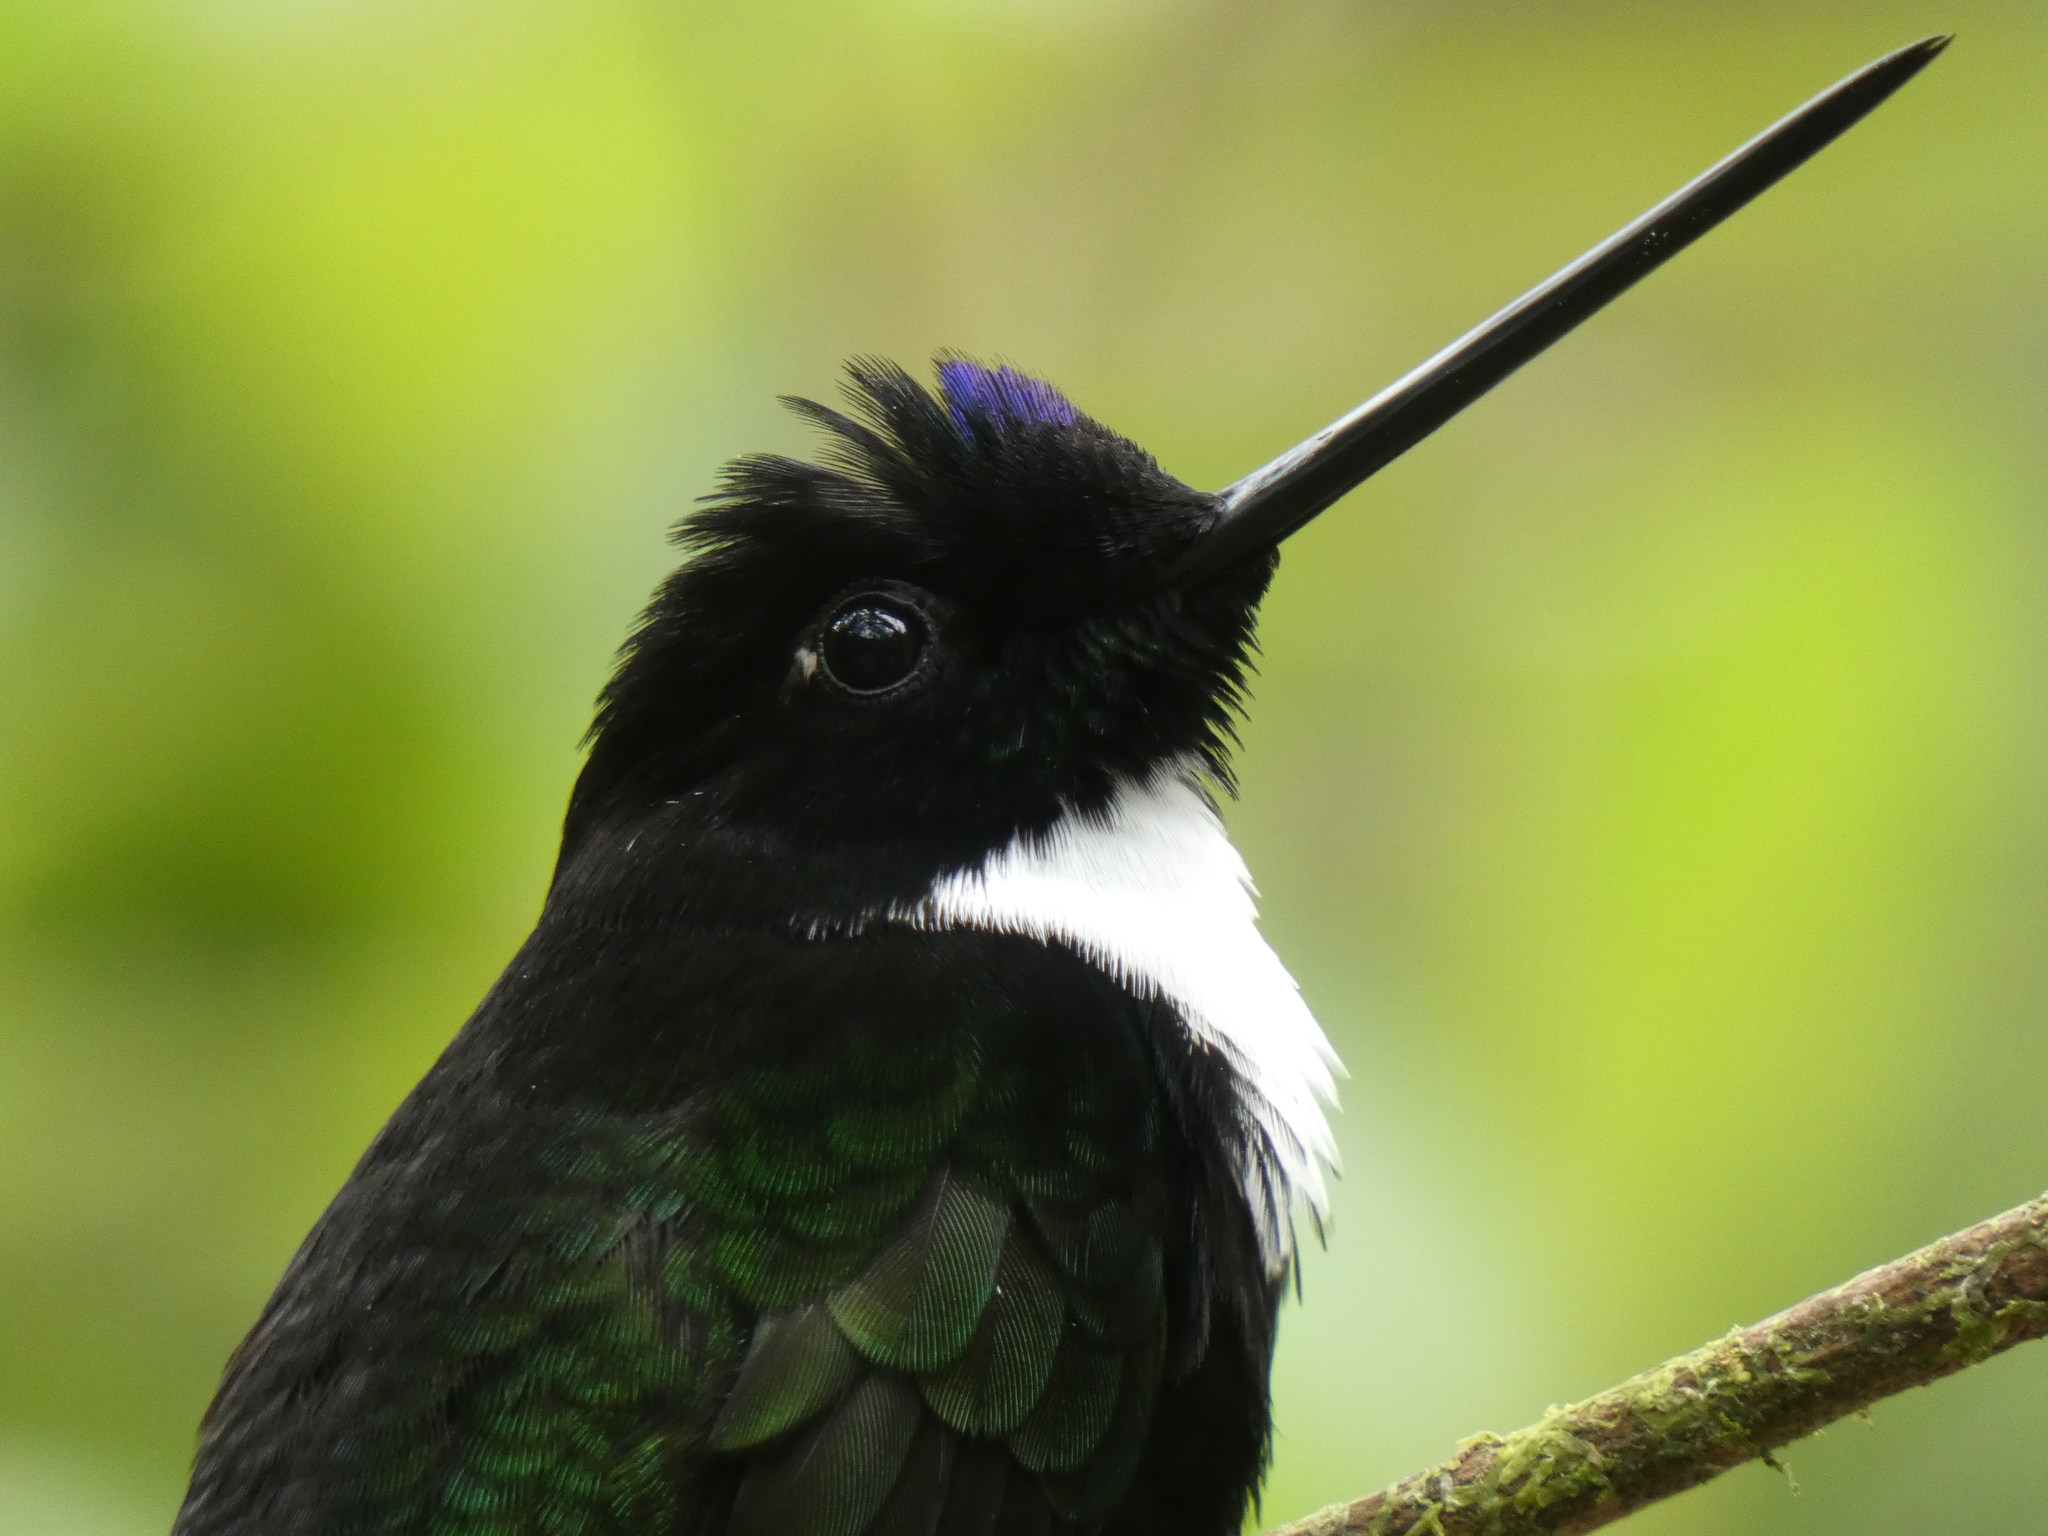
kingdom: Animalia
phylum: Chordata
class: Aves
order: Apodiformes
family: Trochilidae
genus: Coeligena
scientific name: Coeligena torquata
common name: Collared inca
